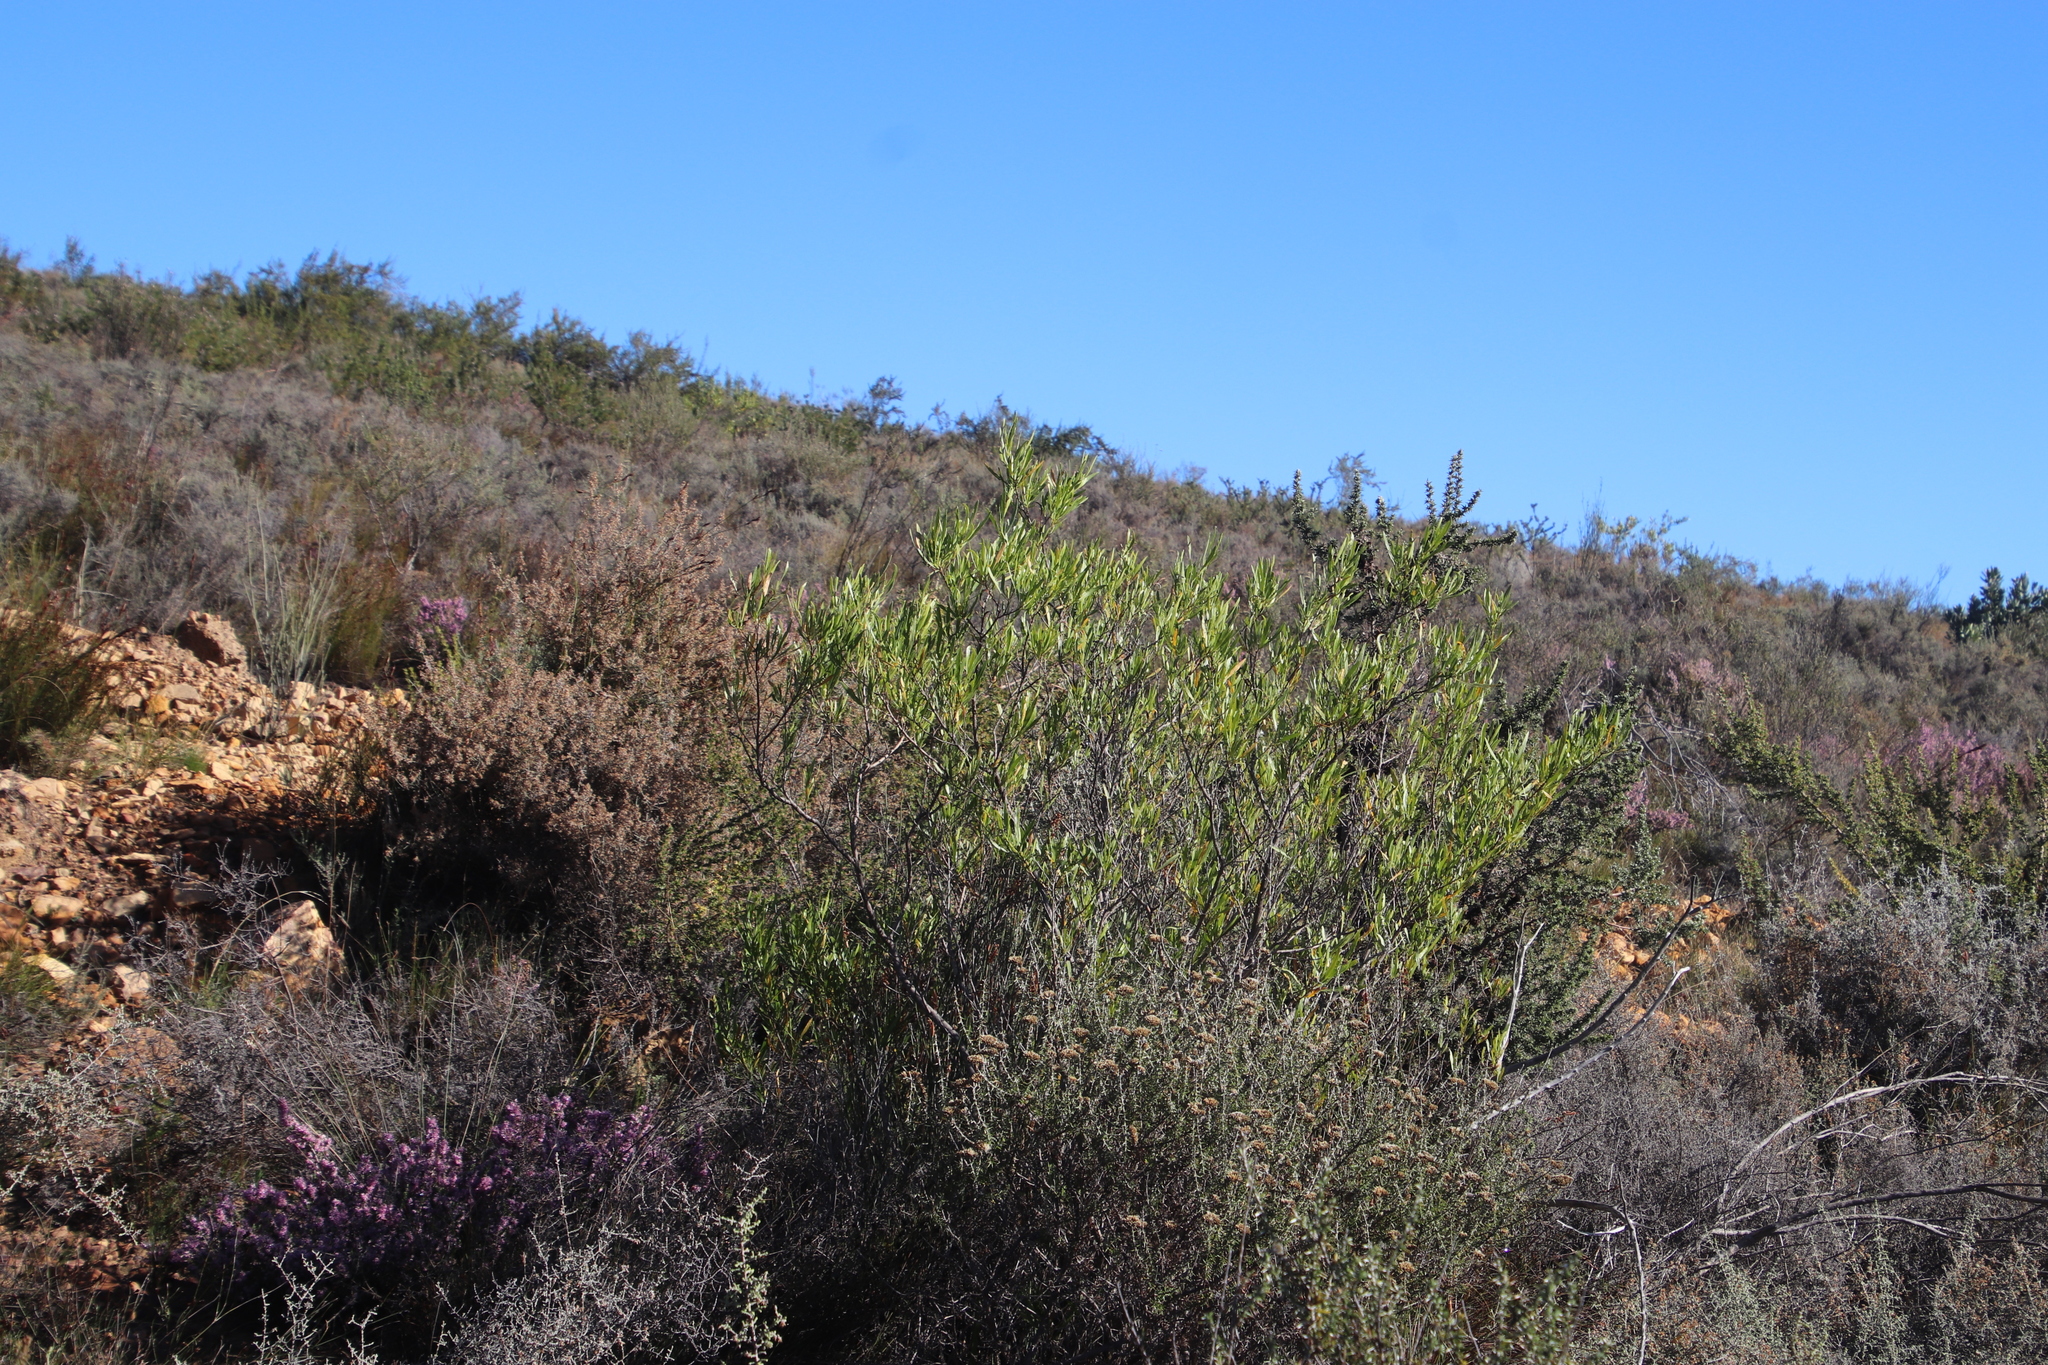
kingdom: Plantae
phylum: Tracheophyta
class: Magnoliopsida
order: Sapindales
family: Sapindaceae
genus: Dodonaea
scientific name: Dodonaea viscosa
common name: Hopbush
